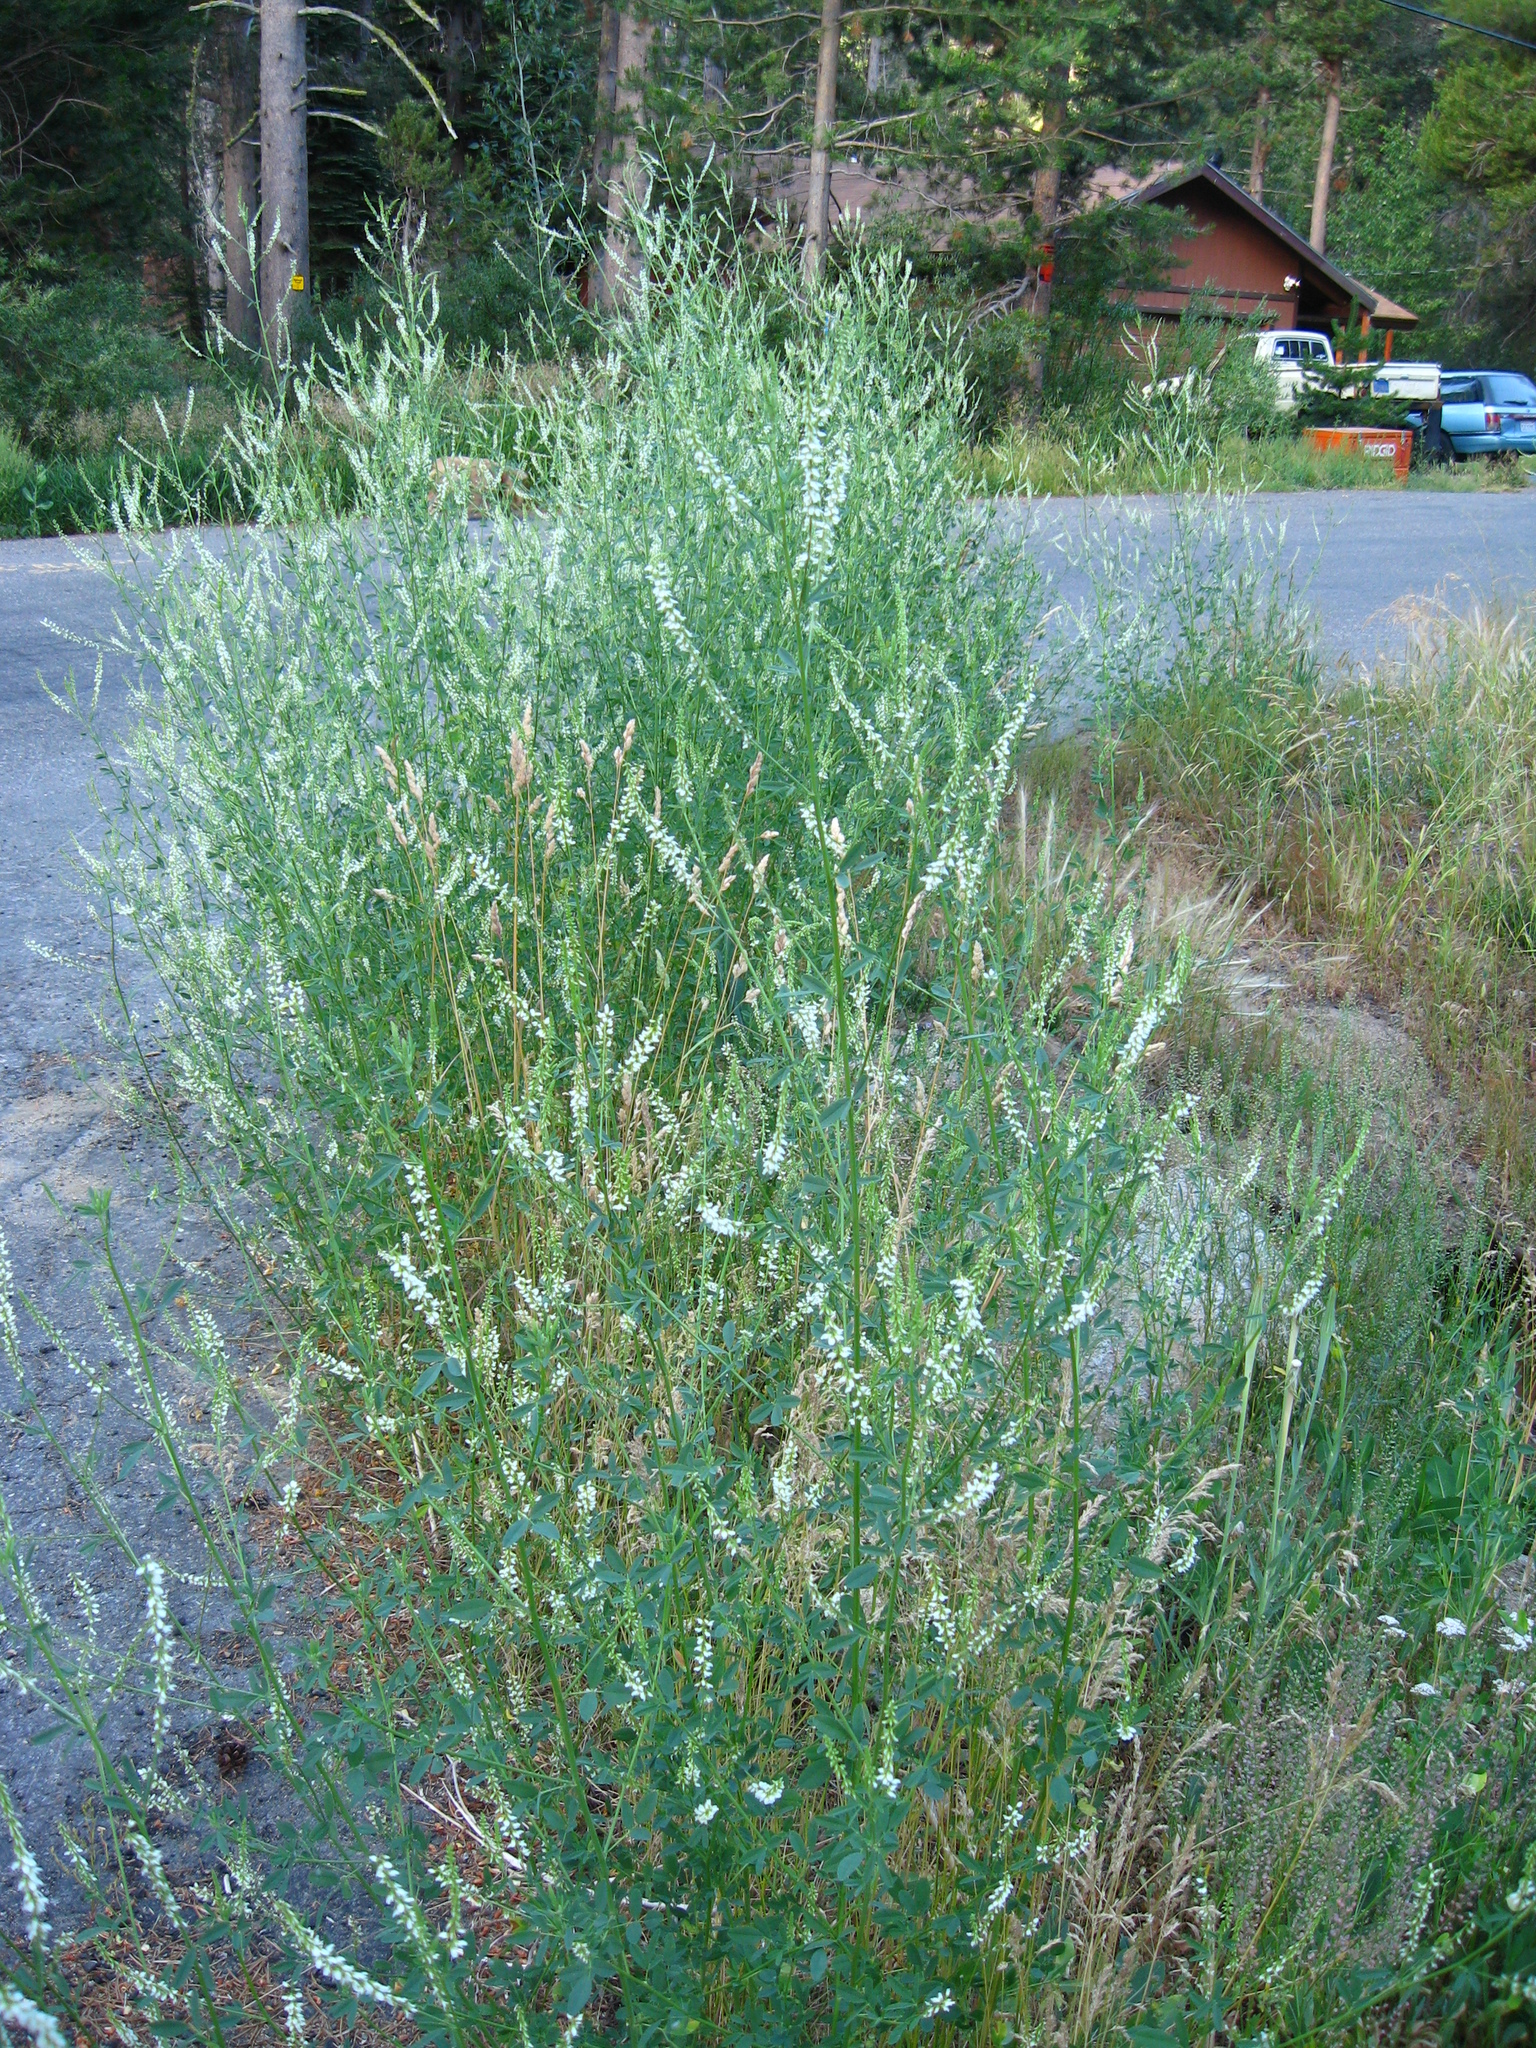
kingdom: Plantae
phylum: Tracheophyta
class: Magnoliopsida
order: Fabales
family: Fabaceae
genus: Melilotus
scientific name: Melilotus albus
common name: White melilot
